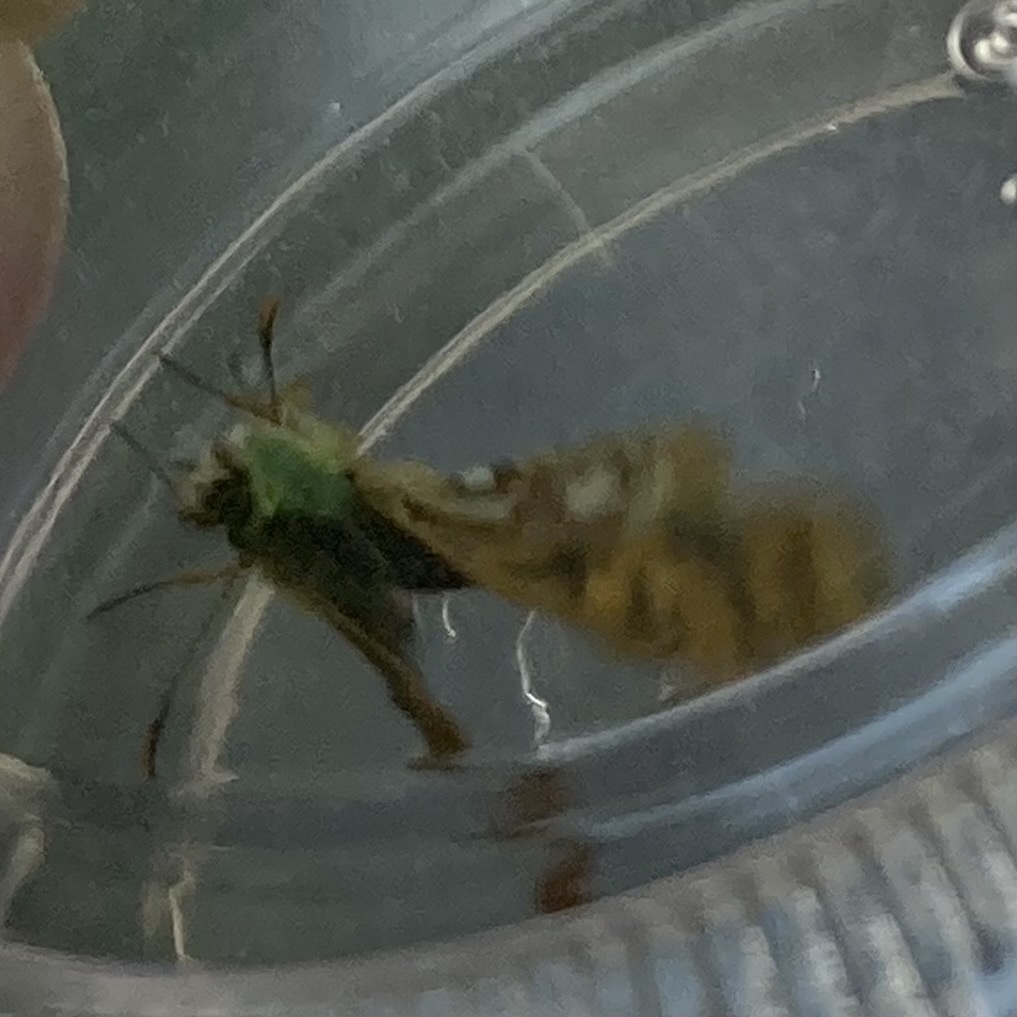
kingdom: Animalia
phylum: Arthropoda
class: Insecta
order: Lepidoptera
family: Hesperiidae
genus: Carterocephalus
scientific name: Carterocephalus mandan
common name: Arctic skipperling
